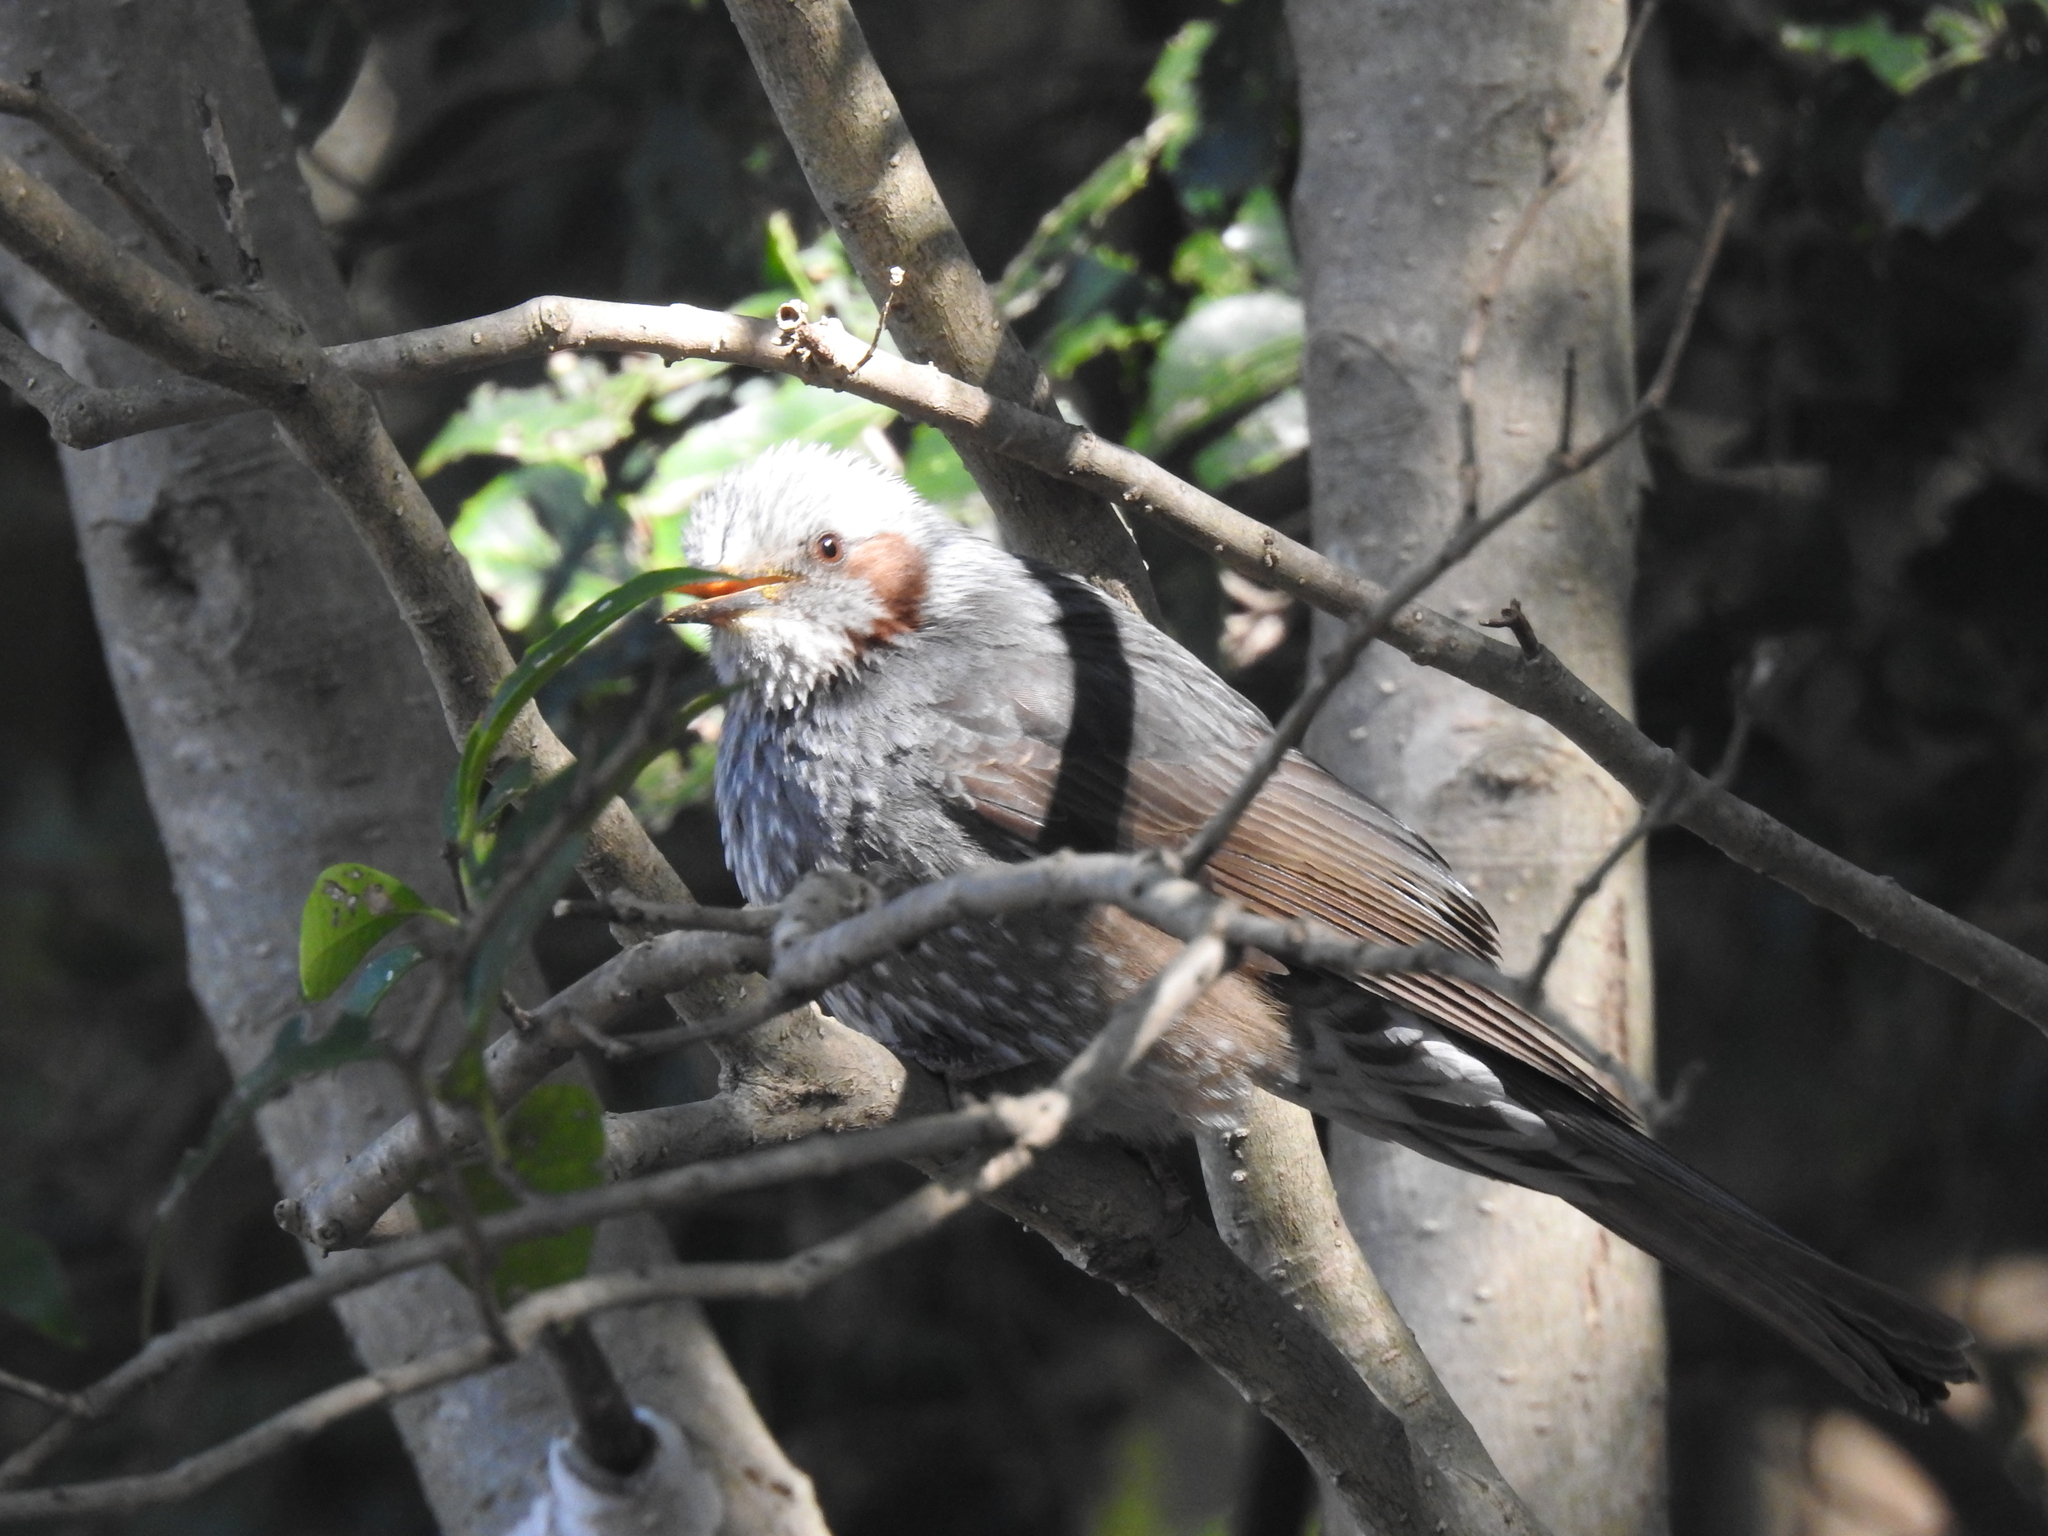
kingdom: Animalia
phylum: Chordata
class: Aves
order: Passeriformes
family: Pycnonotidae
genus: Hypsipetes
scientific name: Hypsipetes amaurotis
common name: Brown-eared bulbul
